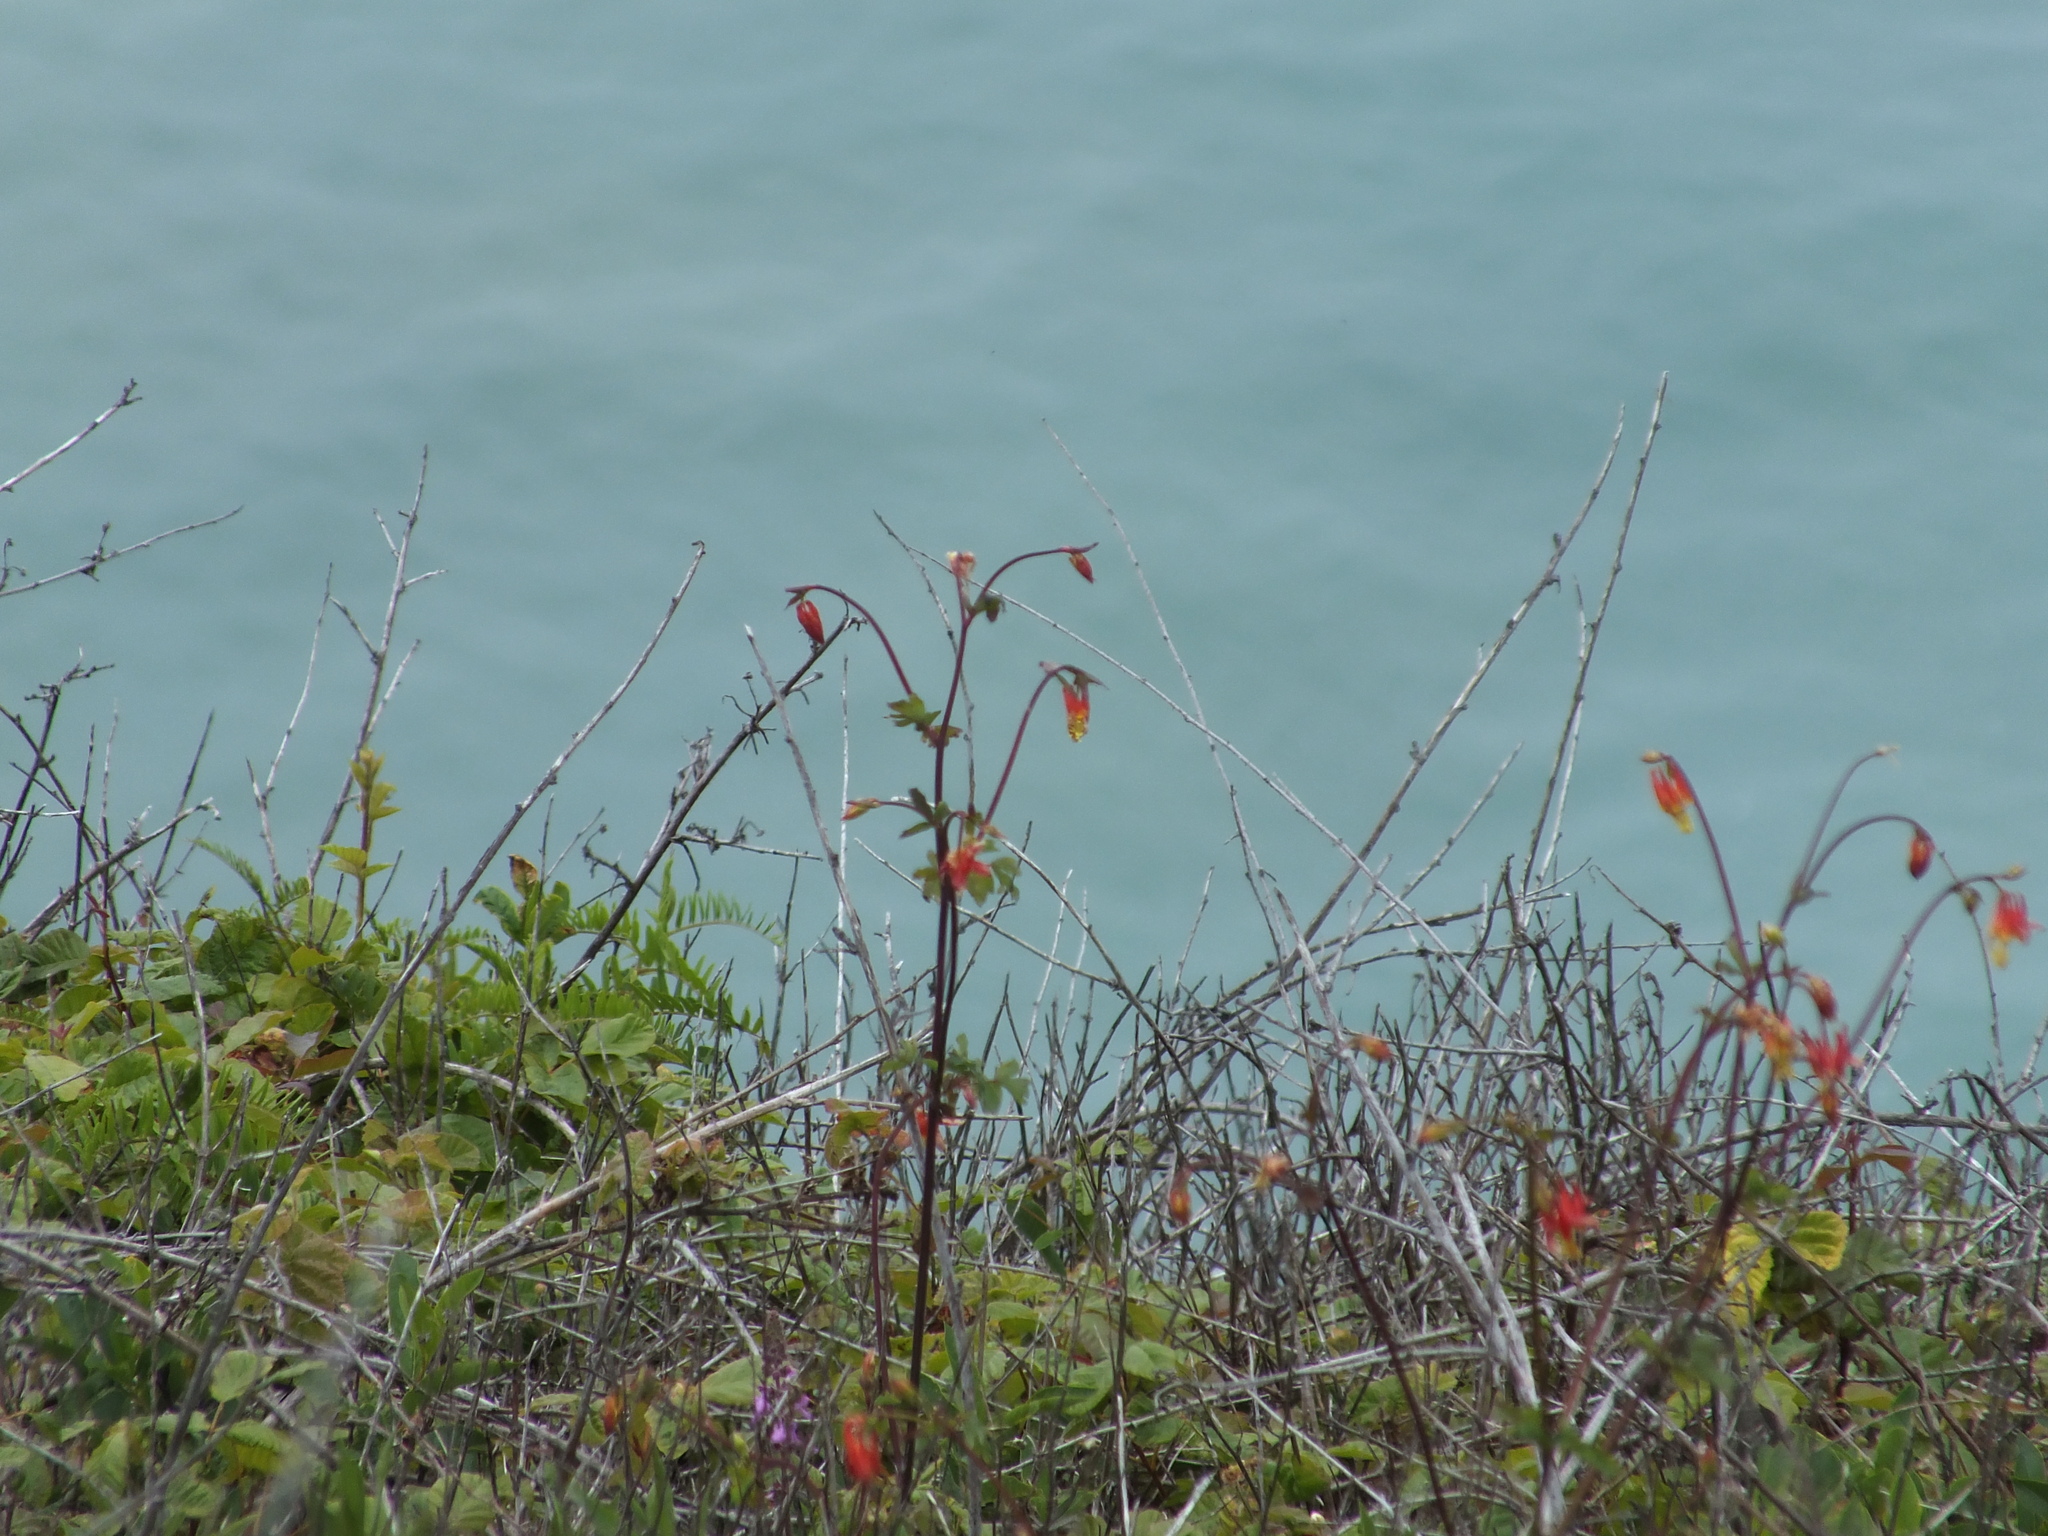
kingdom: Plantae
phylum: Tracheophyta
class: Magnoliopsida
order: Ranunculales
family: Ranunculaceae
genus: Aquilegia
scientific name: Aquilegia formosa
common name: Sitka columbine
